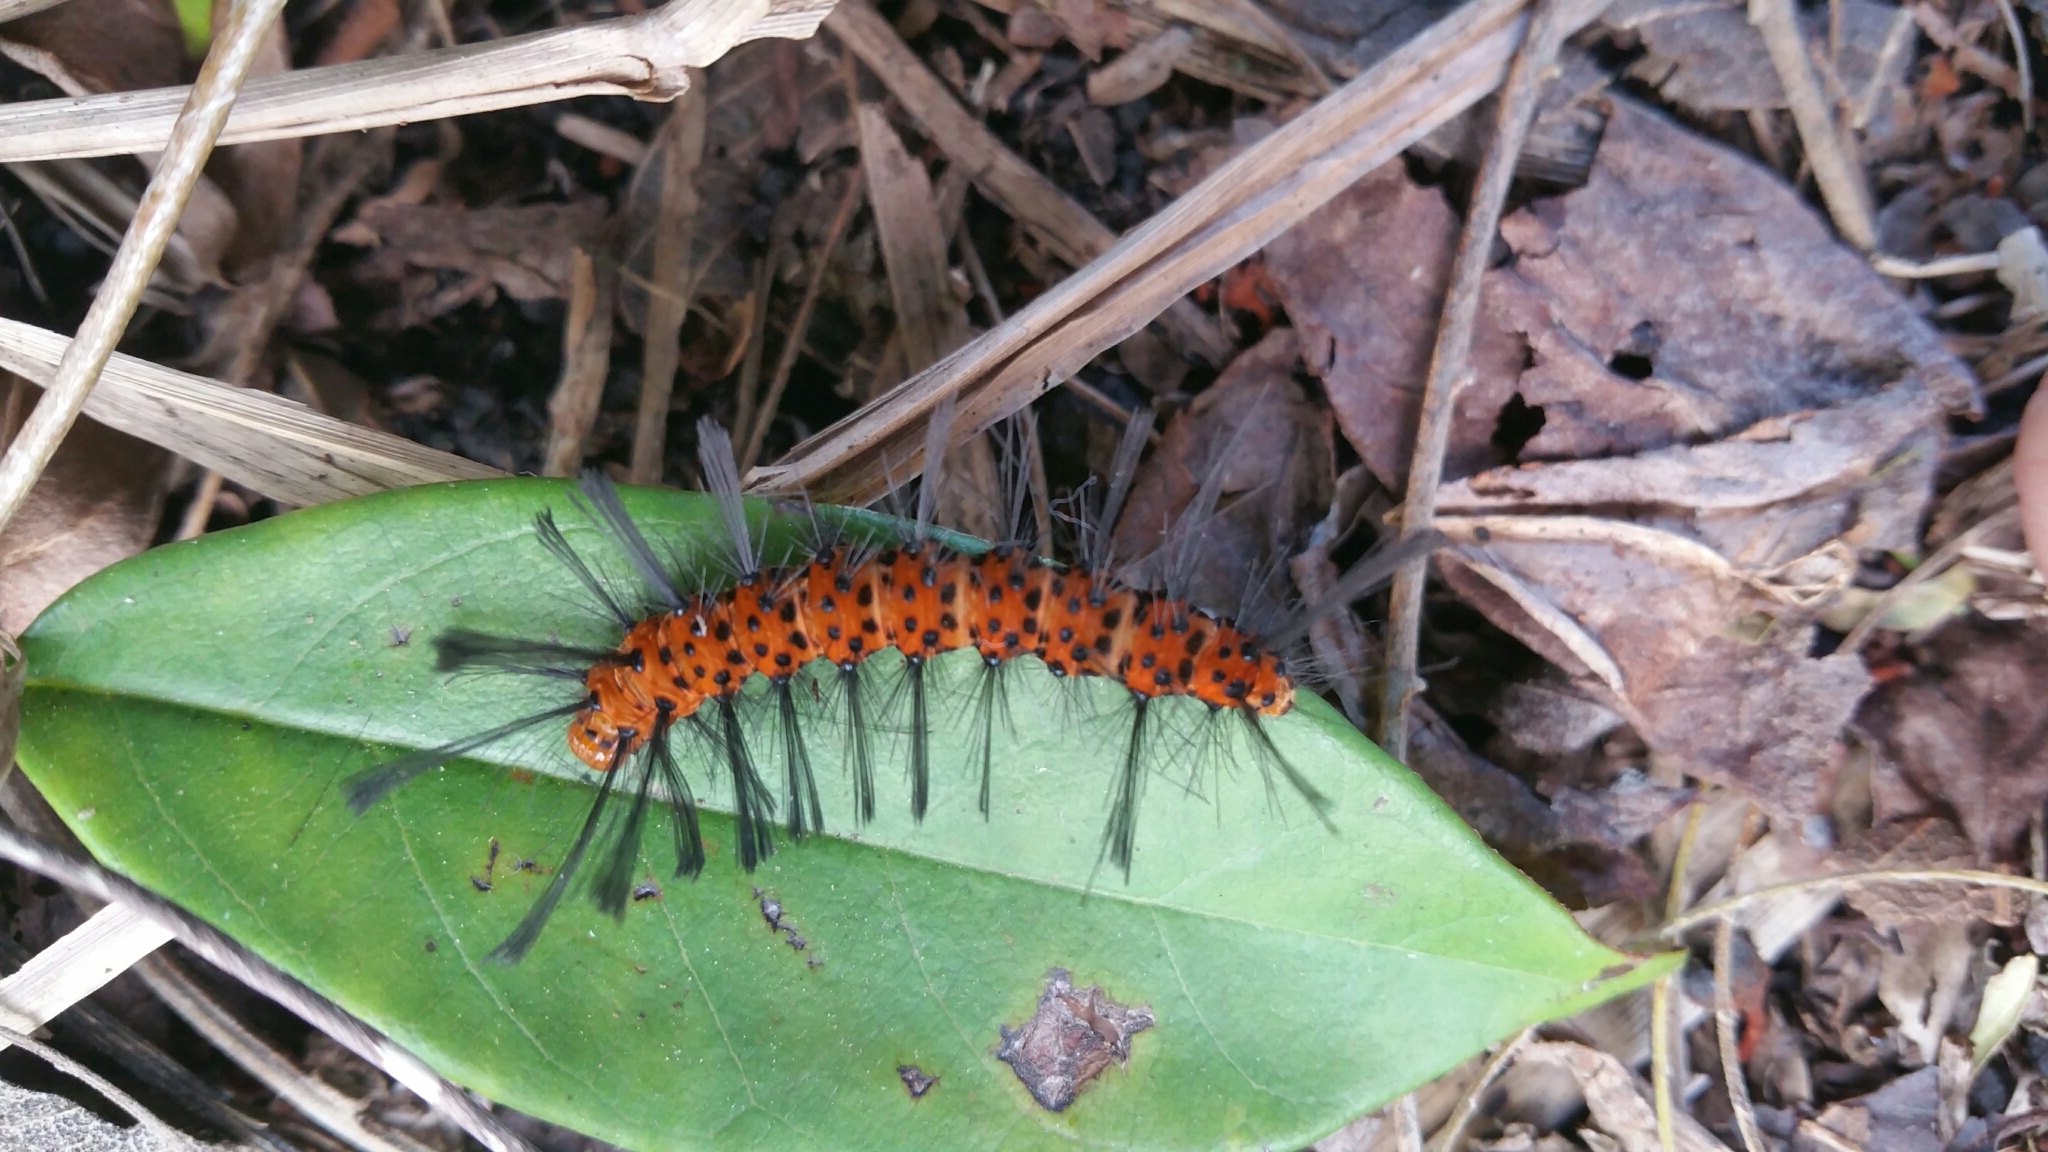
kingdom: Animalia
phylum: Arthropoda
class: Insecta
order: Lepidoptera
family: Erebidae
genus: Syntomeida
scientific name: Syntomeida epilais
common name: Polka-dot wasp moth
